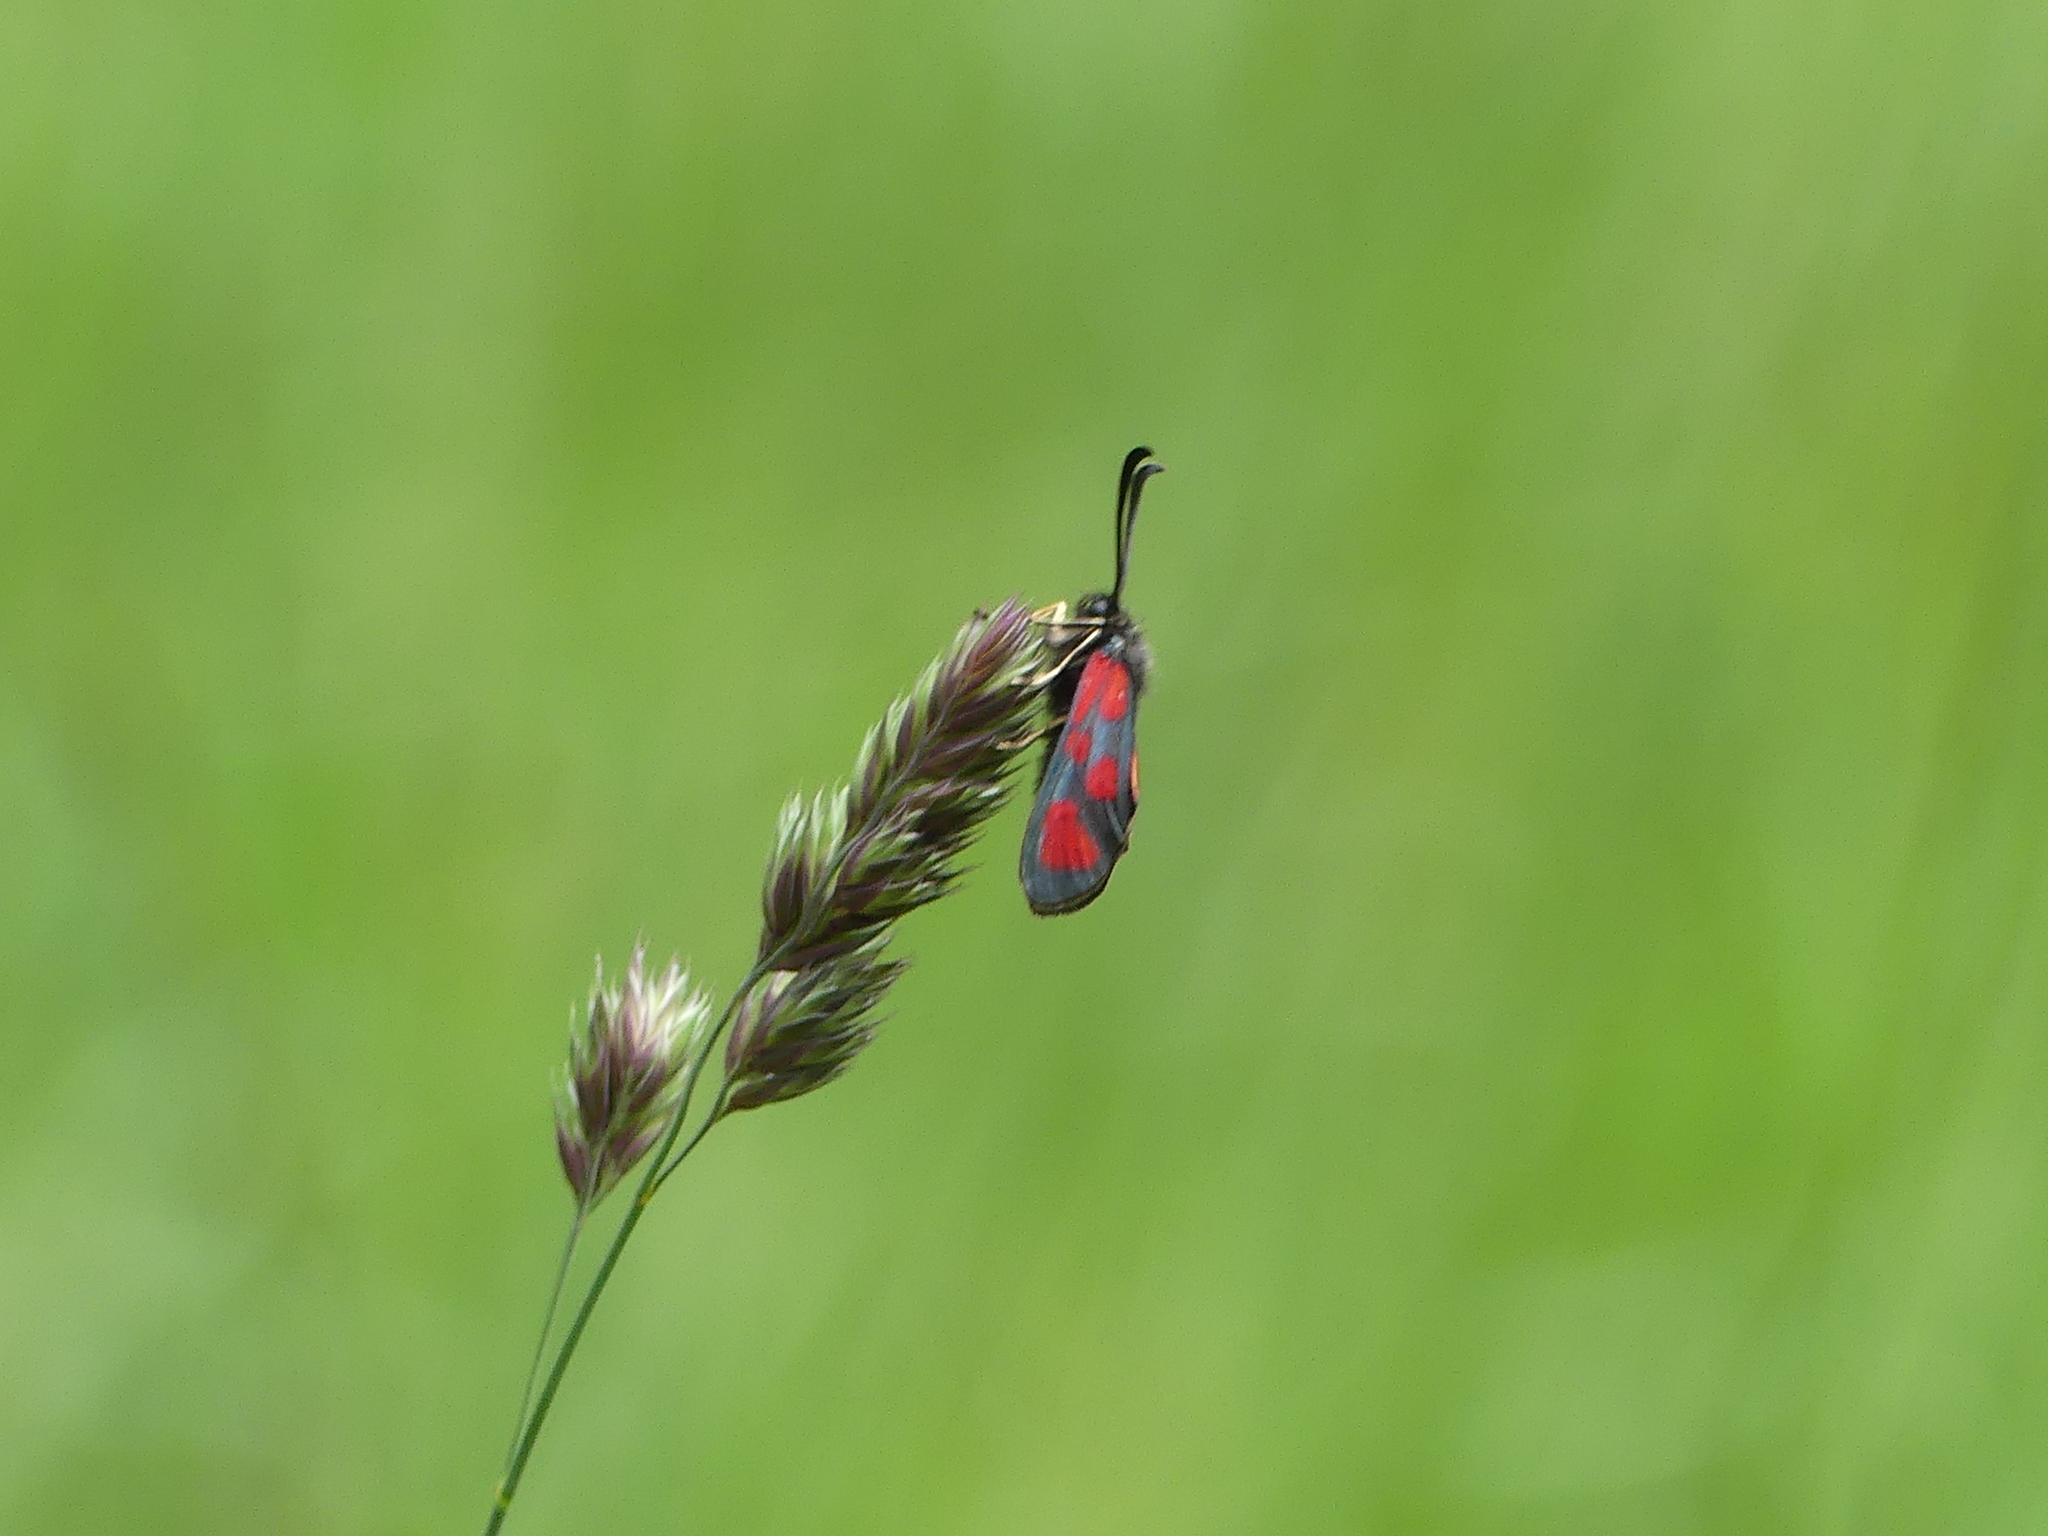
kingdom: Animalia
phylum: Arthropoda
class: Insecta
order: Lepidoptera
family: Zygaenidae
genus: Zygaena
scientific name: Zygaena loti
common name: Slender scotch burnet
